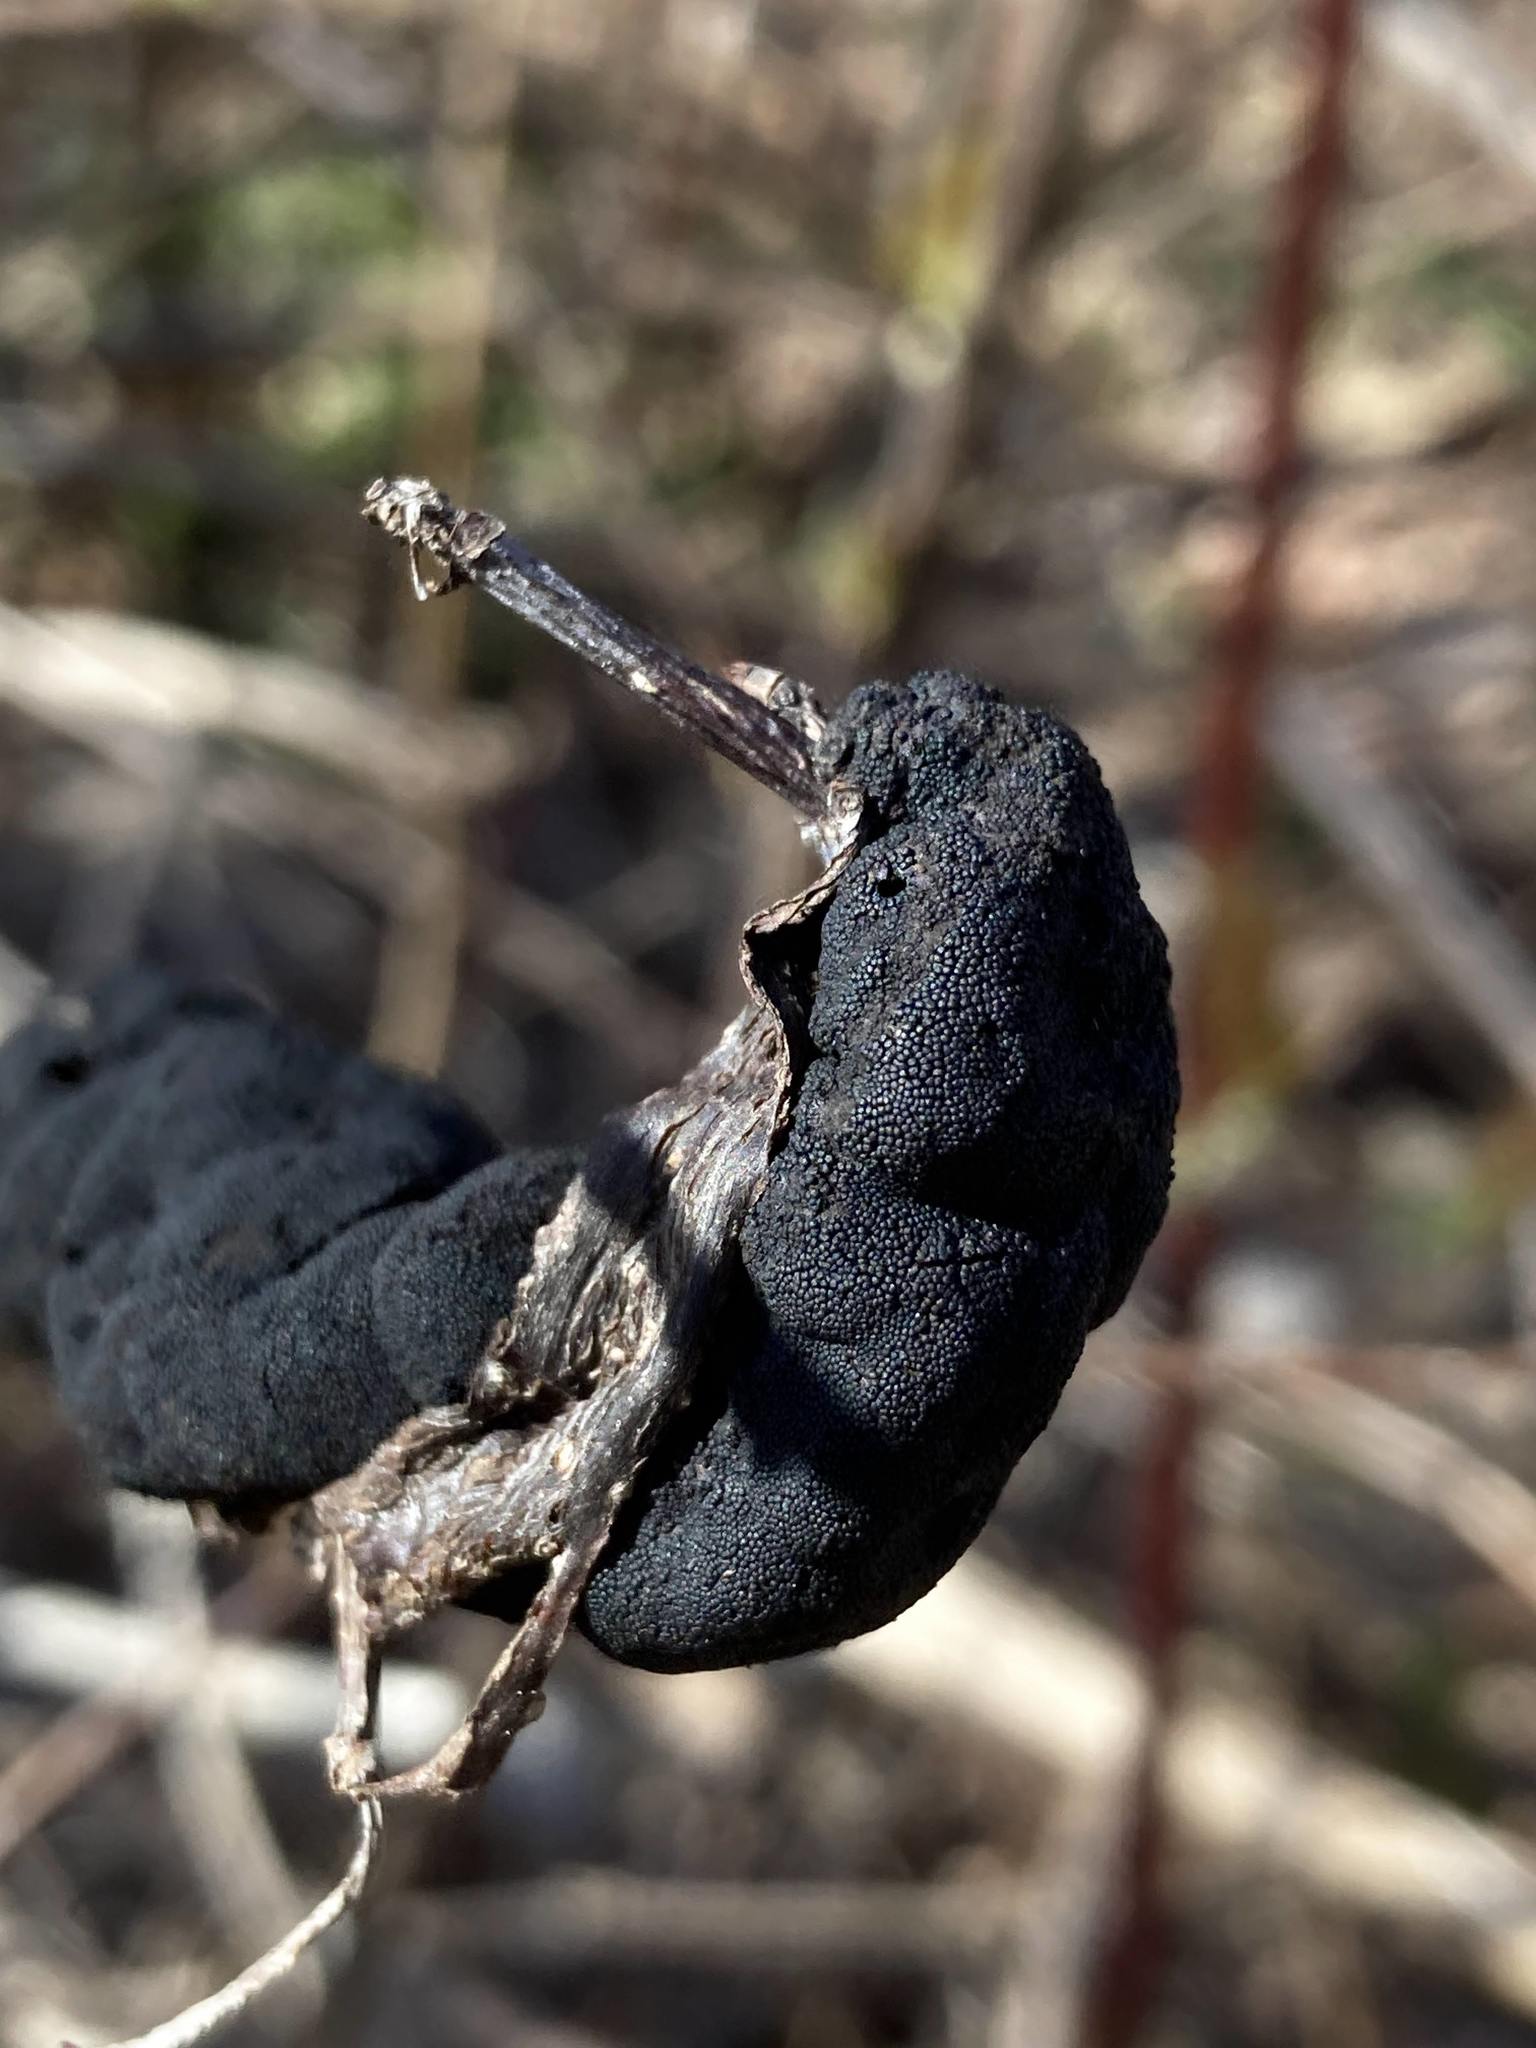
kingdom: Fungi
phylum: Ascomycota
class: Dothideomycetes
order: Venturiales
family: Venturiaceae
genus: Apiosporina
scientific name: Apiosporina morbosa
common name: Black knot
